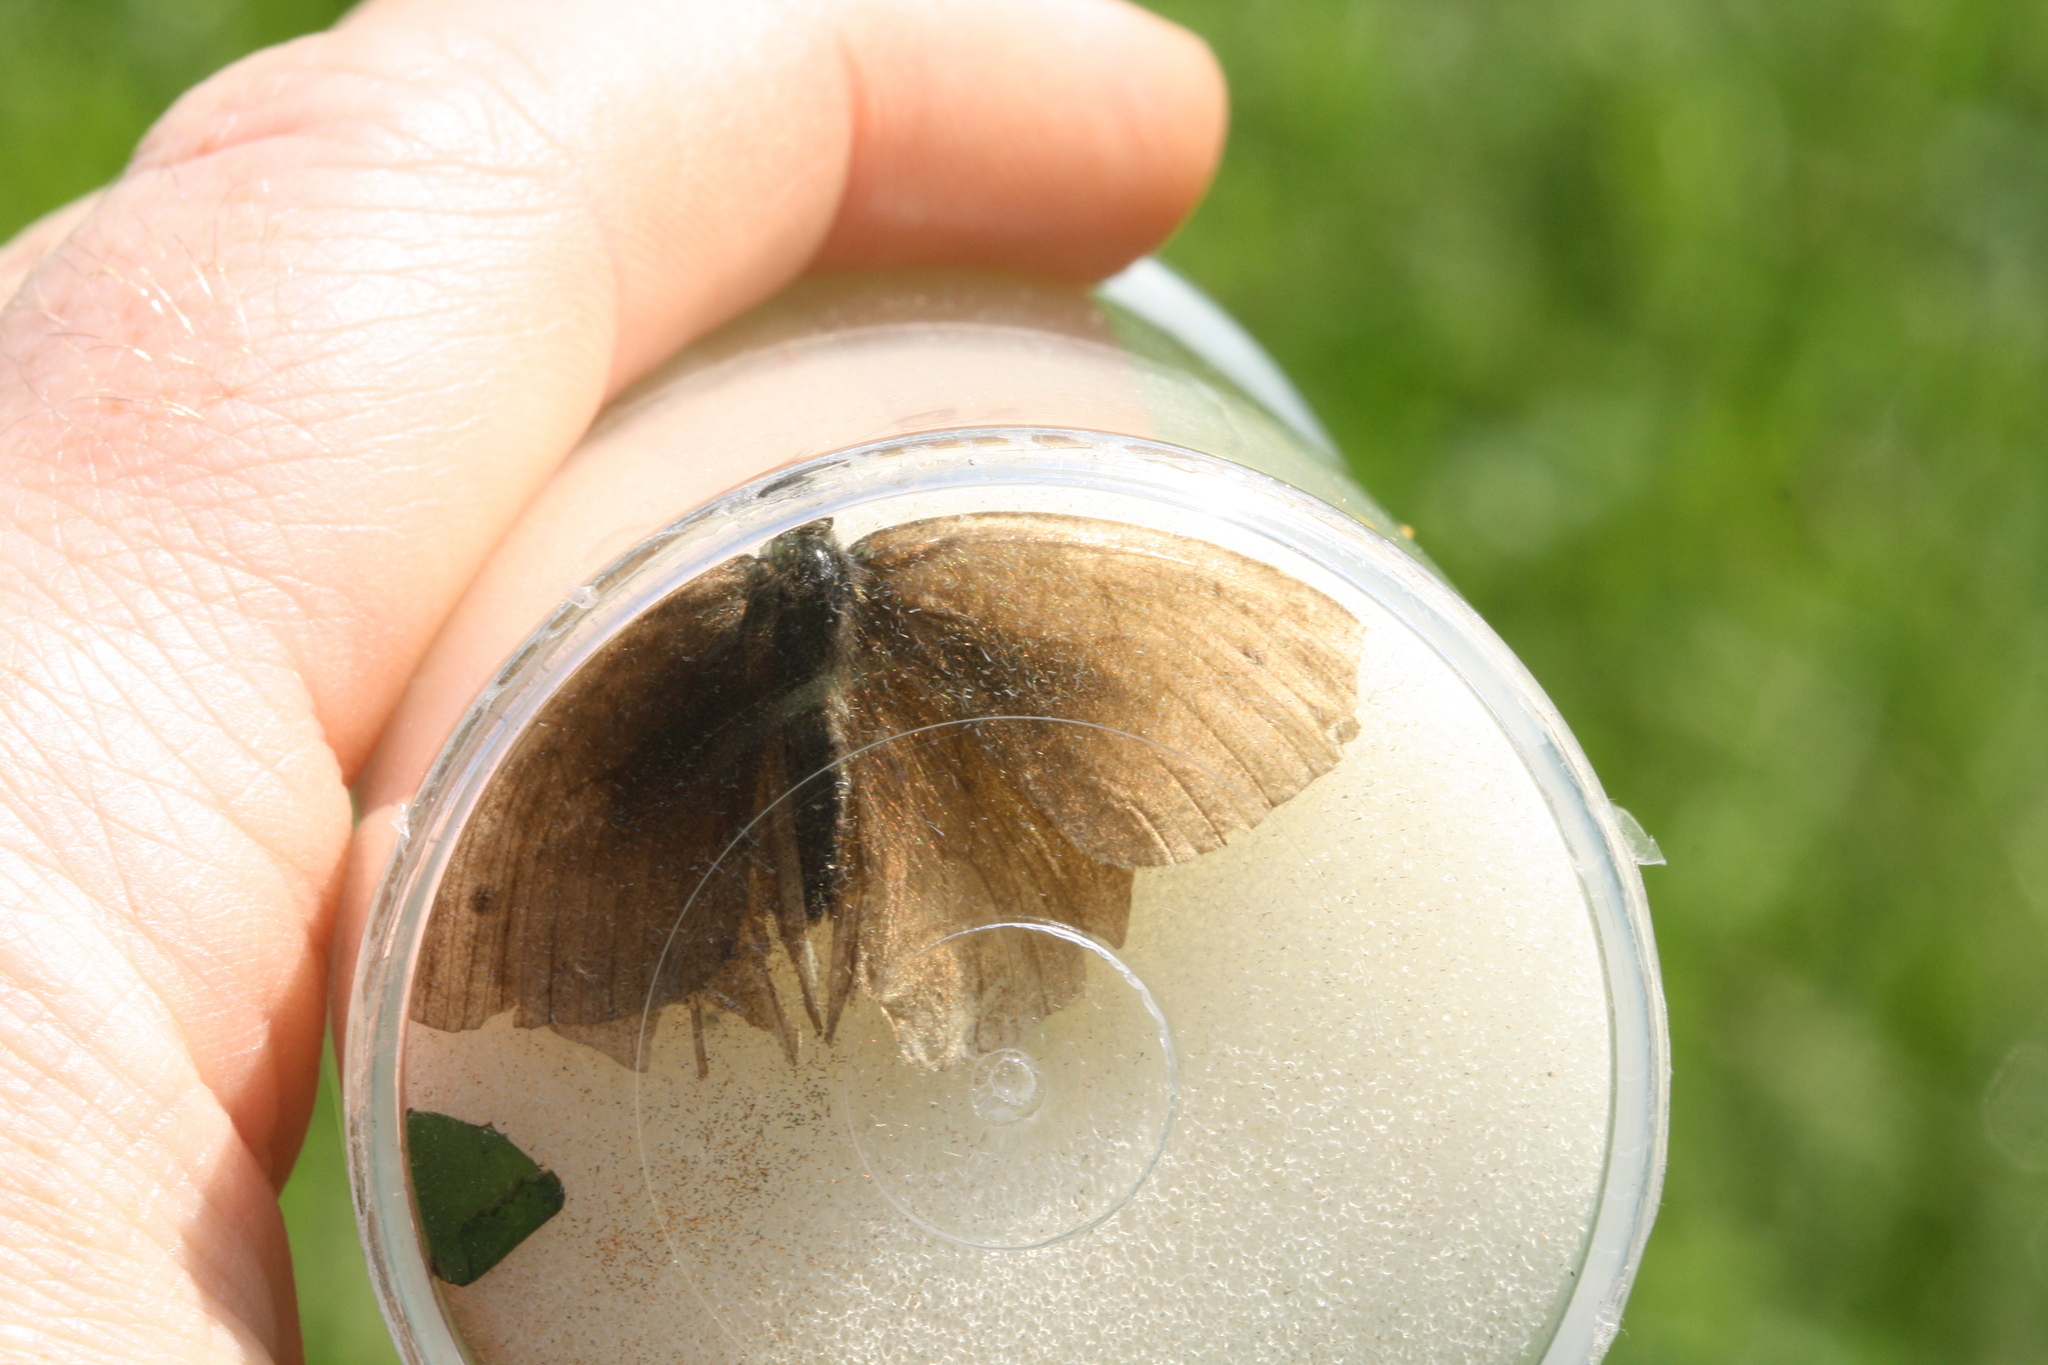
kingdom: Animalia
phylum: Arthropoda
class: Insecta
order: Lepidoptera
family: Nymphalidae
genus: Maniola
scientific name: Maniola jurtina
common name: Meadow brown
